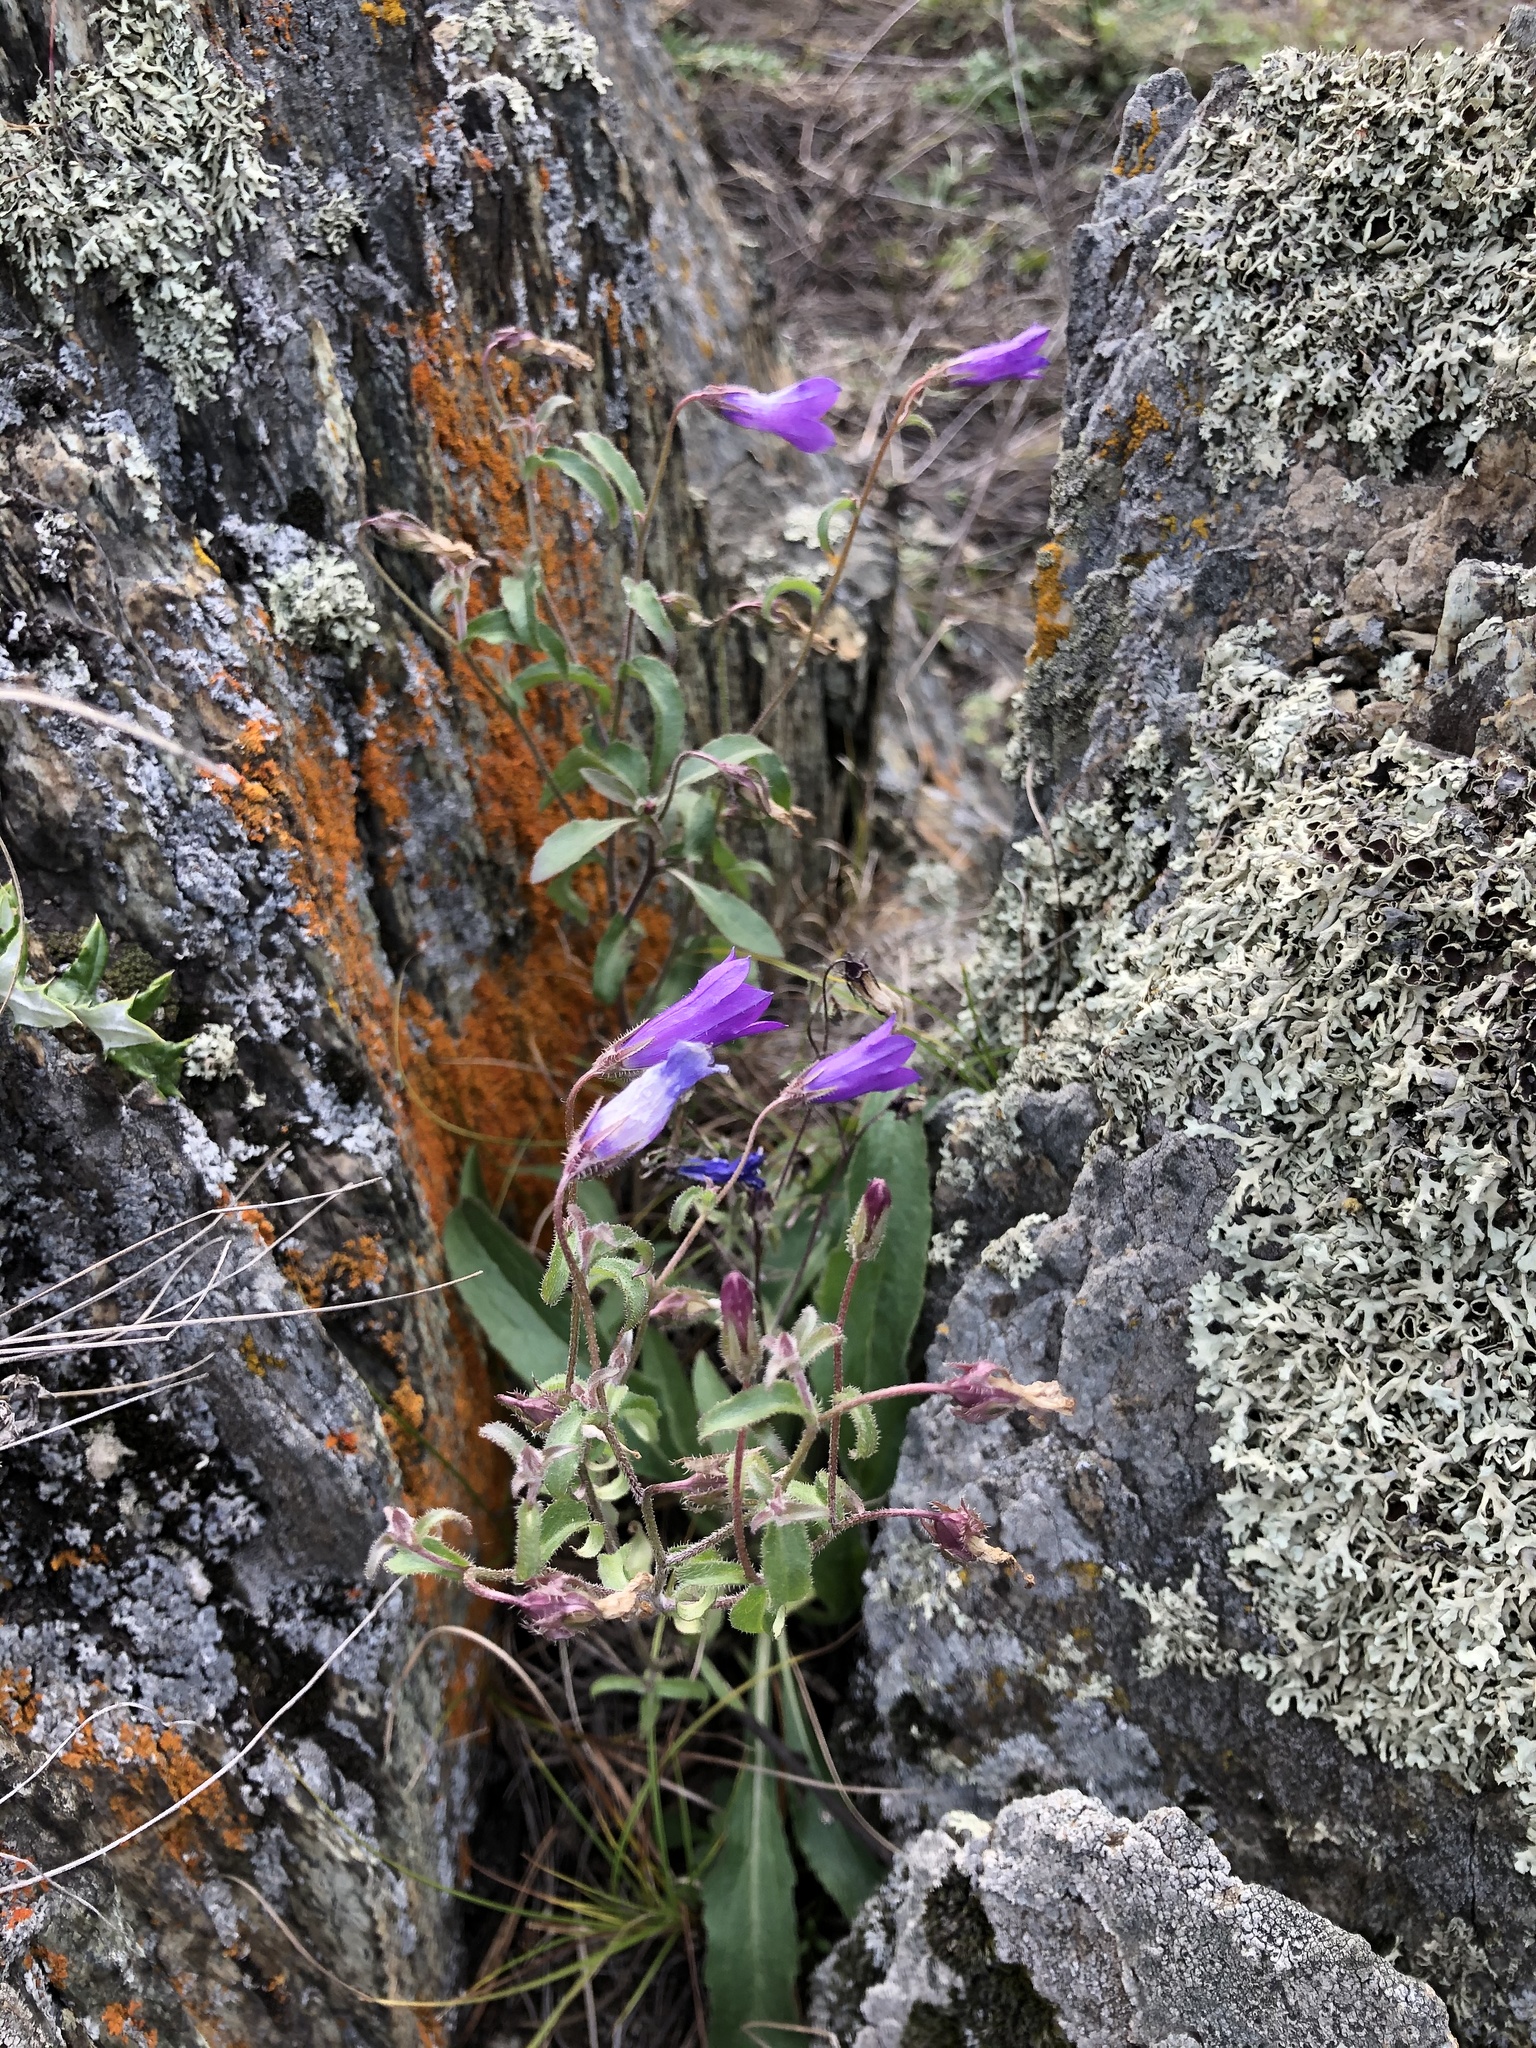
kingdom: Plantae
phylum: Tracheophyta
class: Magnoliopsida
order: Asterales
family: Campanulaceae
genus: Campanula
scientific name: Campanula sibirica
